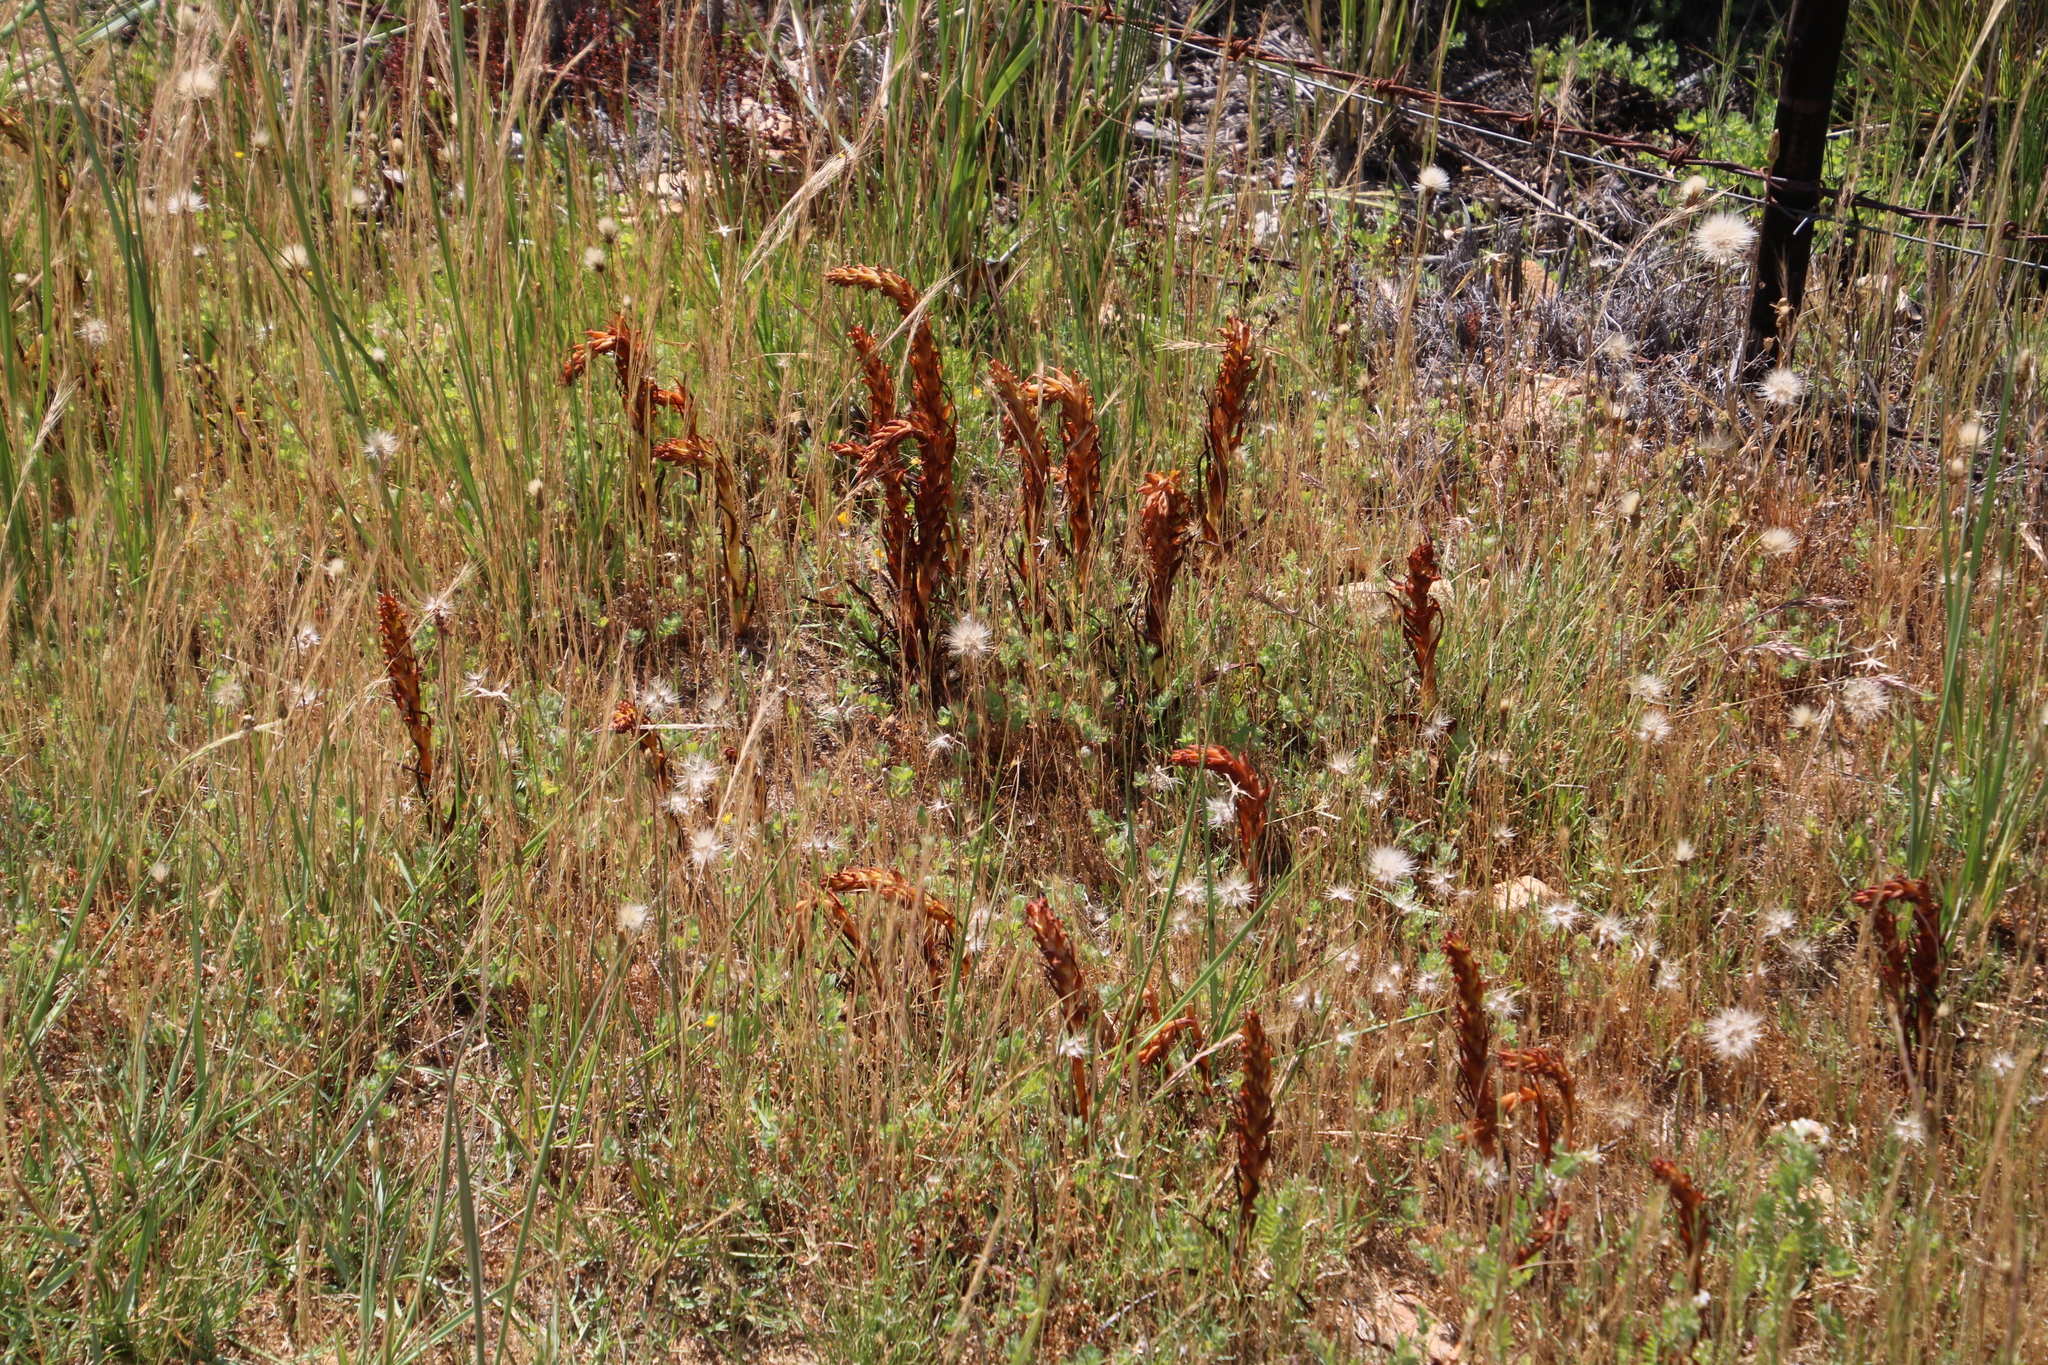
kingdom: Plantae
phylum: Tracheophyta
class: Liliopsida
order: Asparagales
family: Orchidaceae
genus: Disa
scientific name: Disa bracteata
